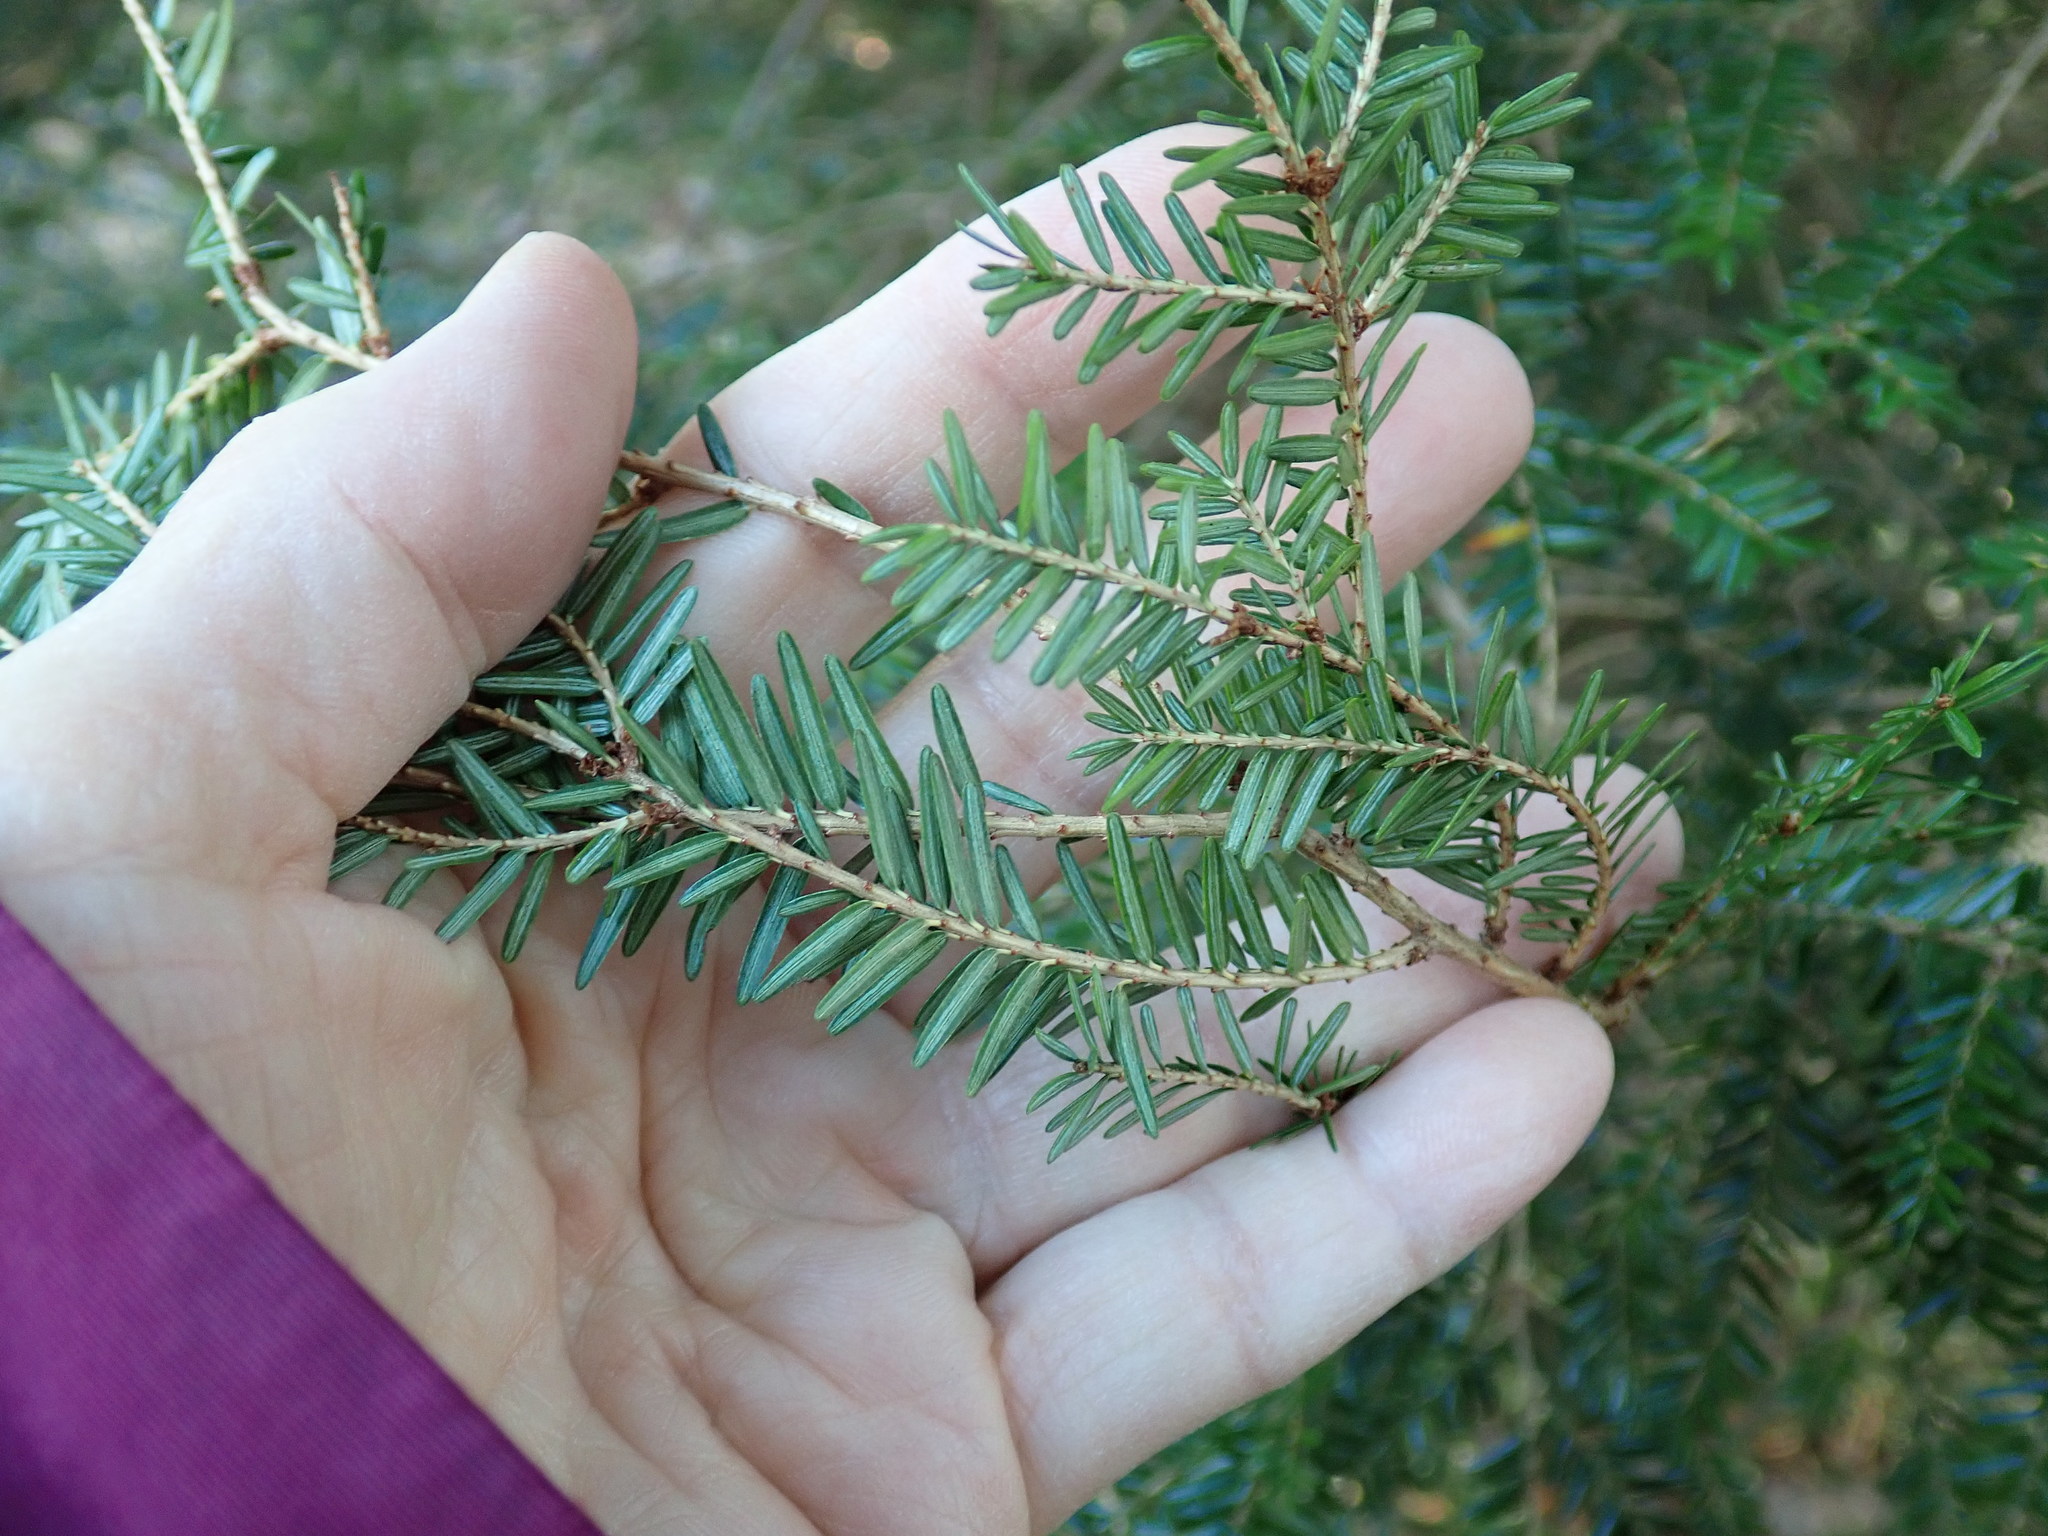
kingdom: Plantae
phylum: Tracheophyta
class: Pinopsida
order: Pinales
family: Pinaceae
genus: Tsuga
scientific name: Tsuga canadensis
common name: Eastern hemlock
